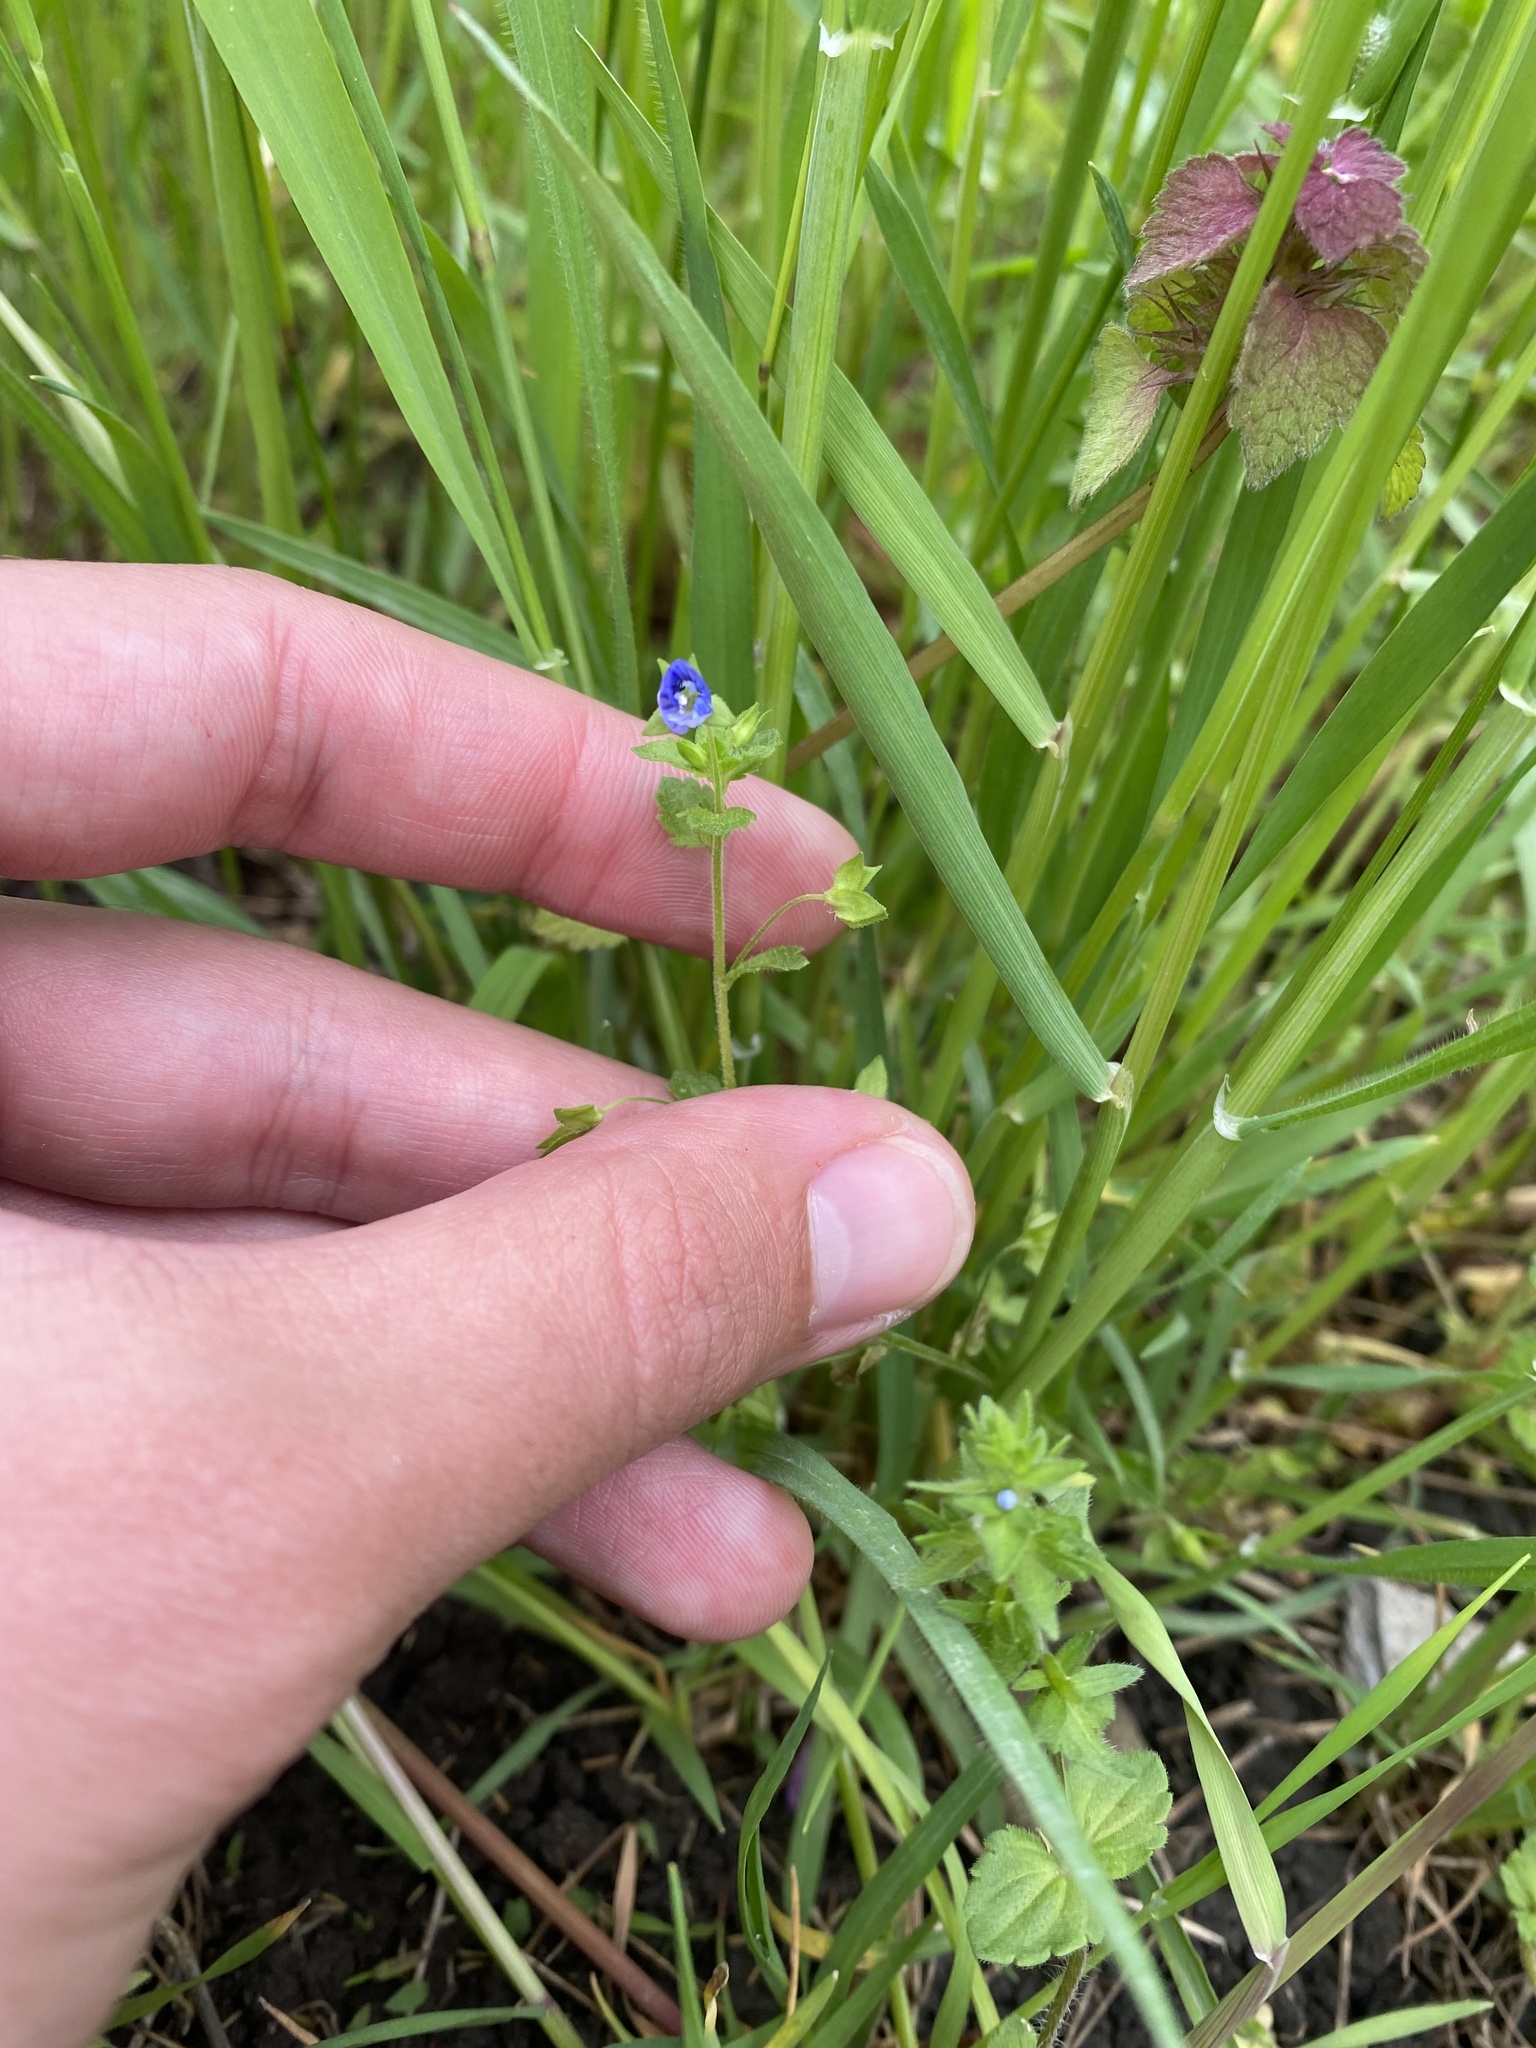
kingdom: Plantae
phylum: Tracheophyta
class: Magnoliopsida
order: Lamiales
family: Plantaginaceae
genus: Veronica
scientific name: Veronica persica
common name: Common field-speedwell
